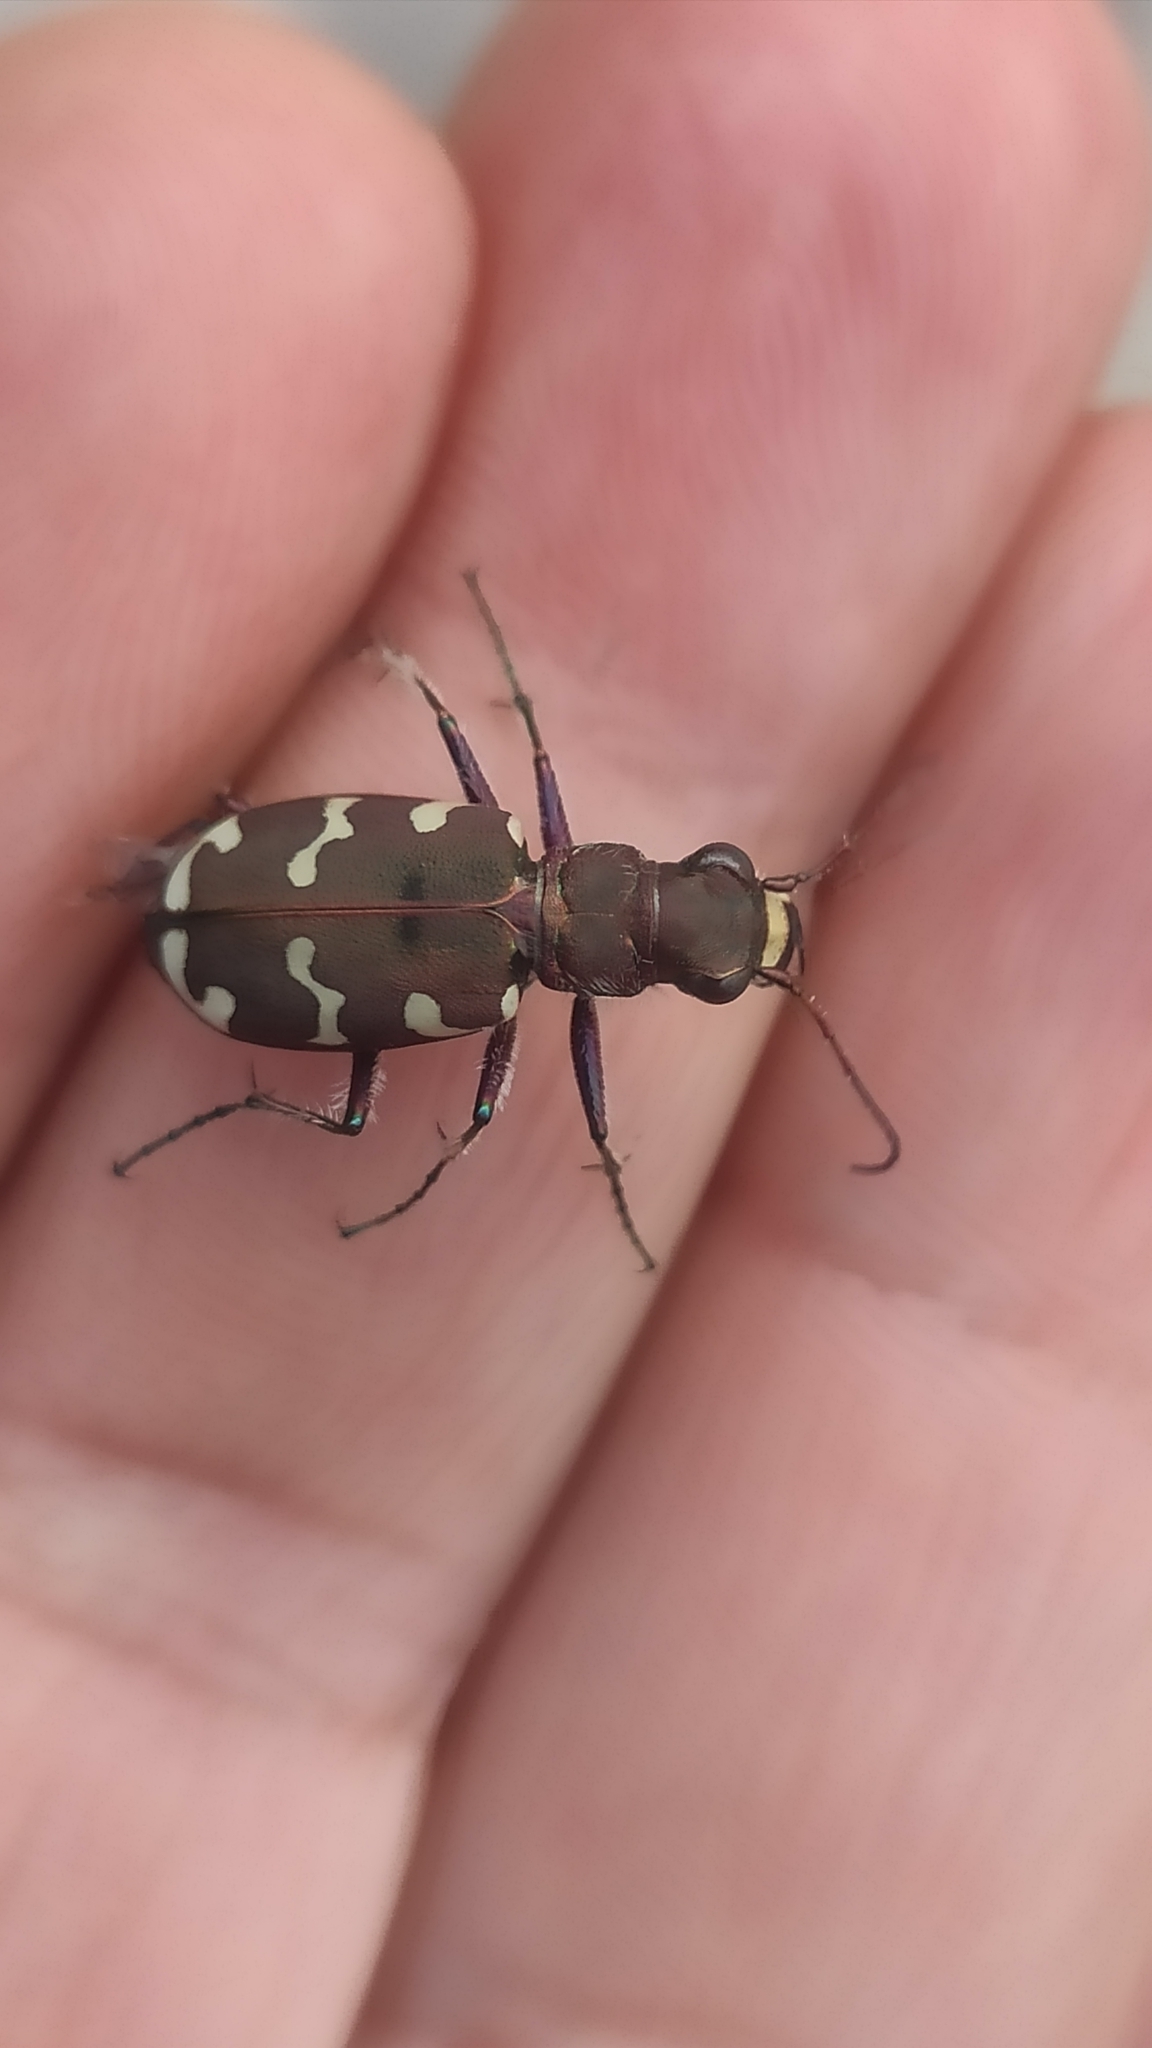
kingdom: Animalia
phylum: Arthropoda
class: Insecta
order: Coleoptera
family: Carabidae
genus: Cicindela
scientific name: Cicindela hybrida
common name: Northern dune tiger beetle
